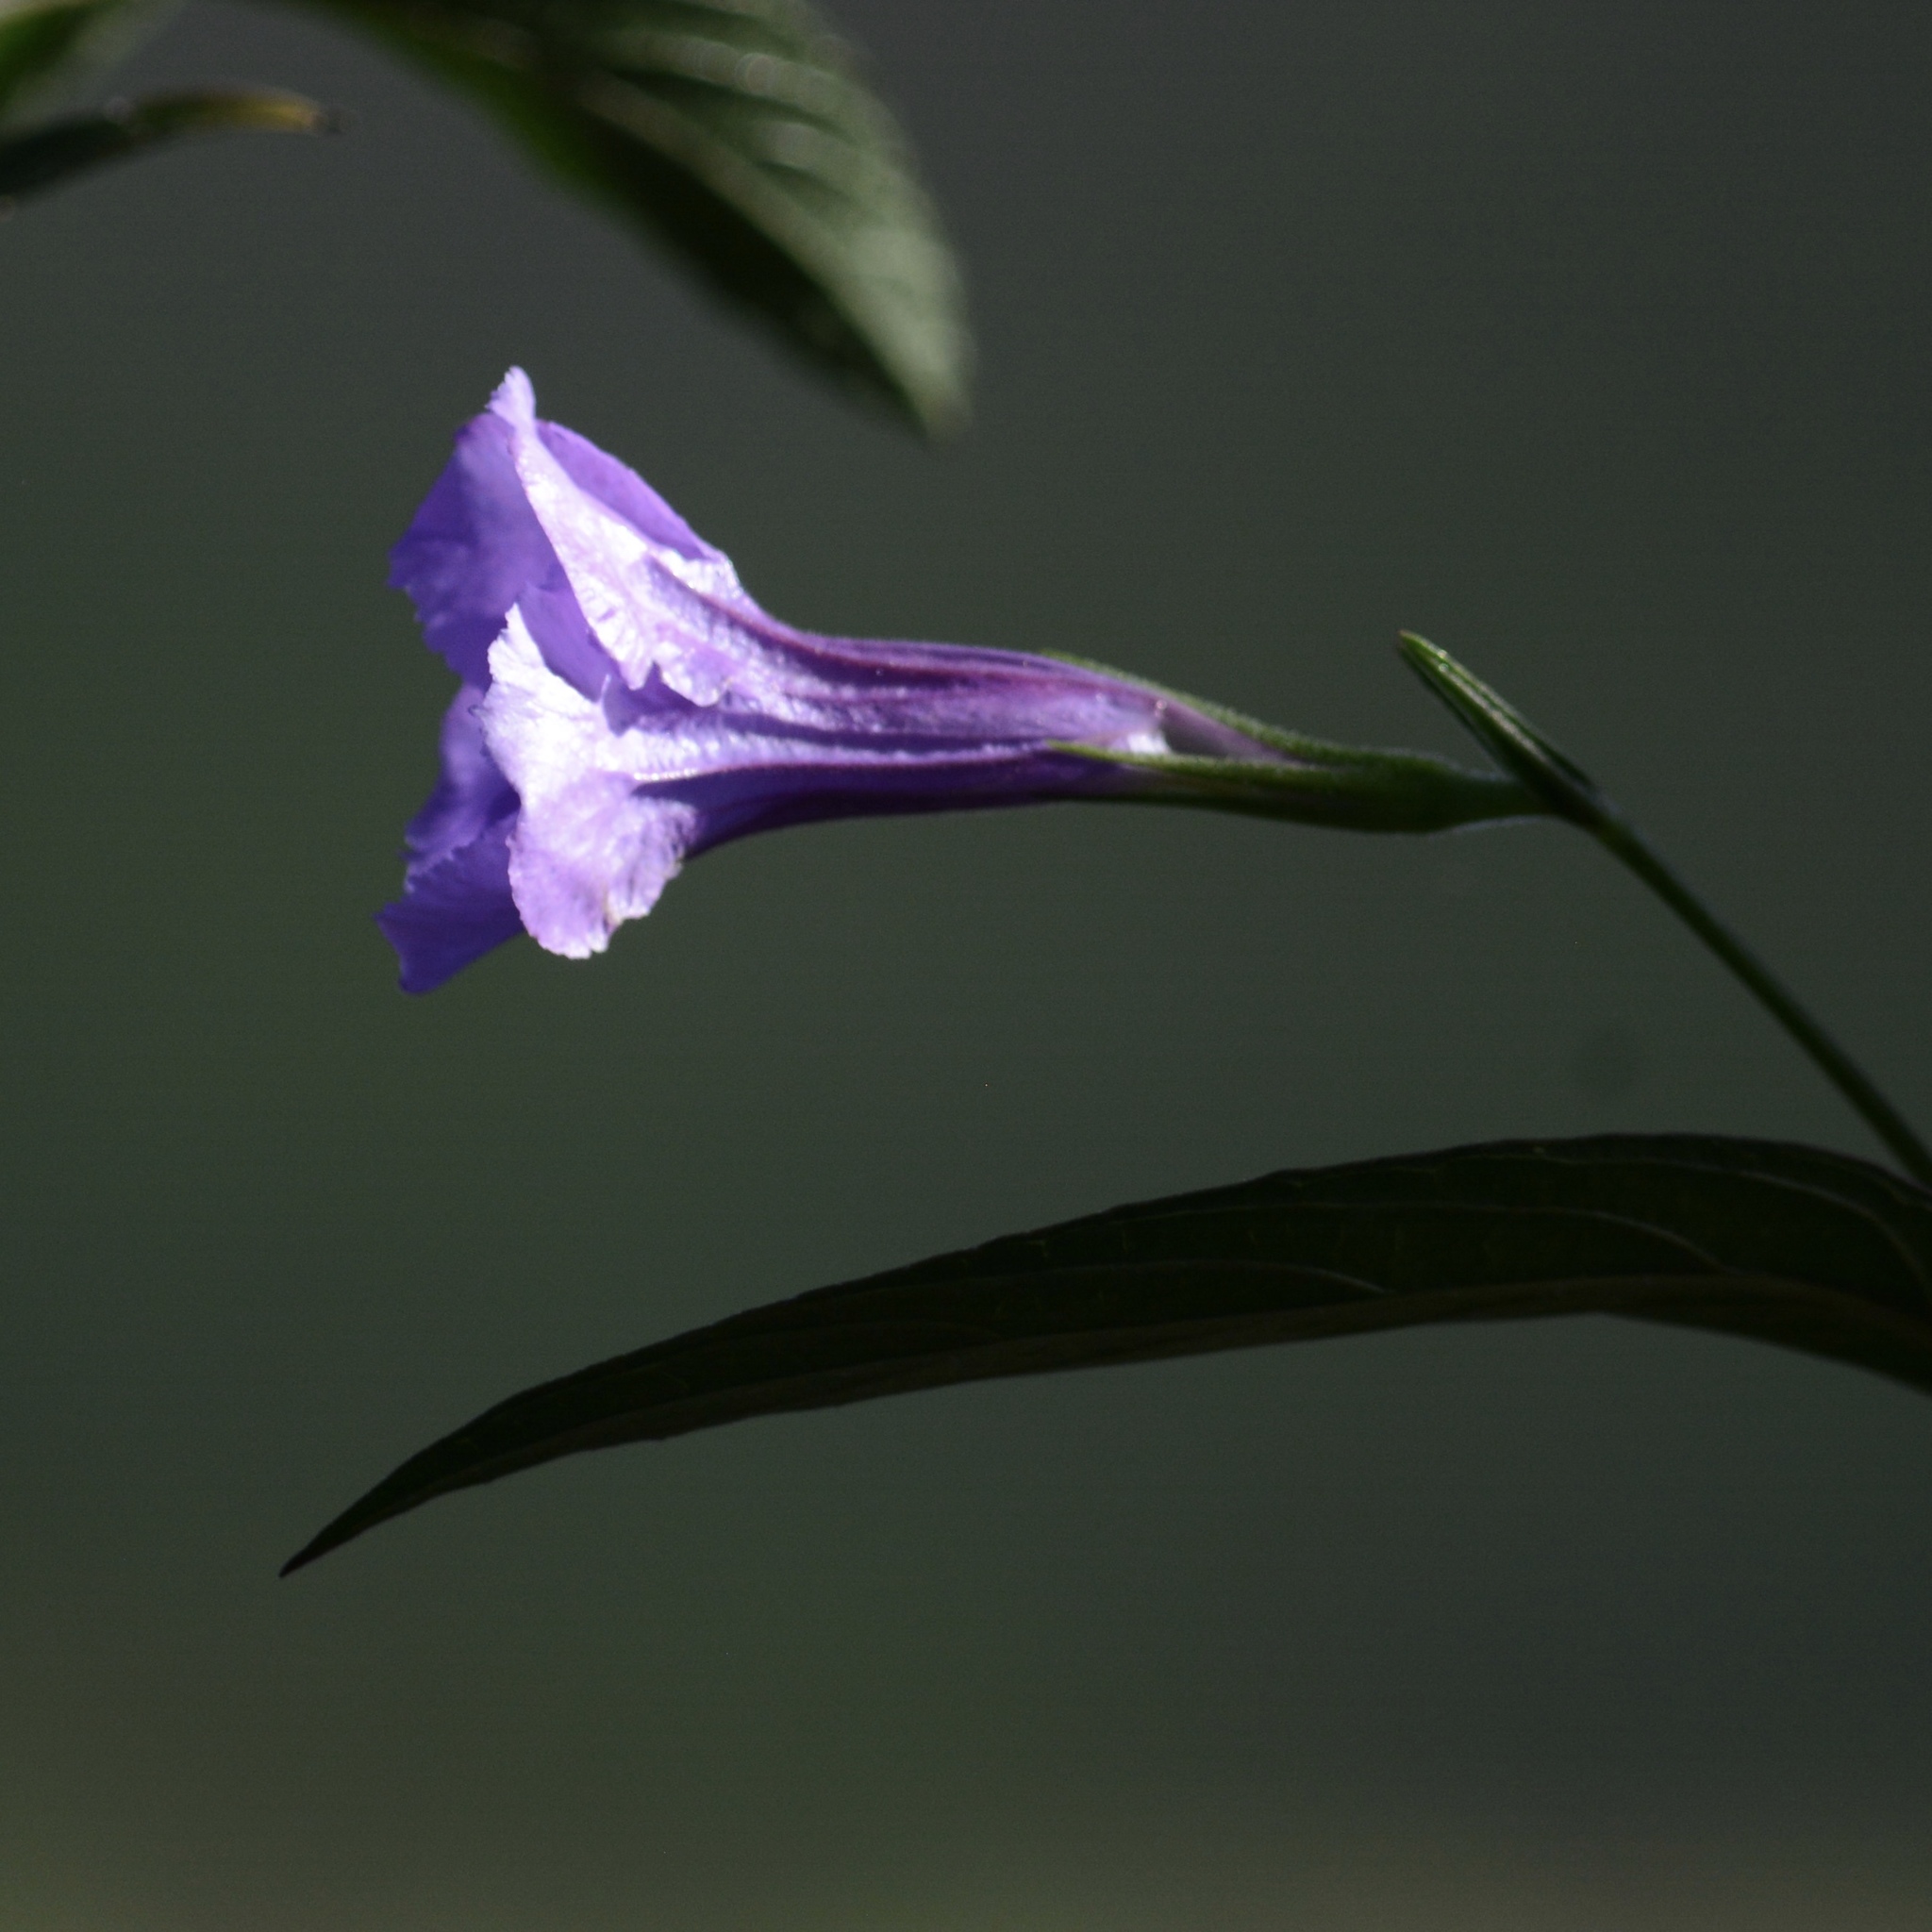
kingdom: Plantae
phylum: Tracheophyta
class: Magnoliopsida
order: Lamiales
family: Acanthaceae
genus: Ruellia
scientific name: Ruellia simplex
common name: Softseed wild petunia
